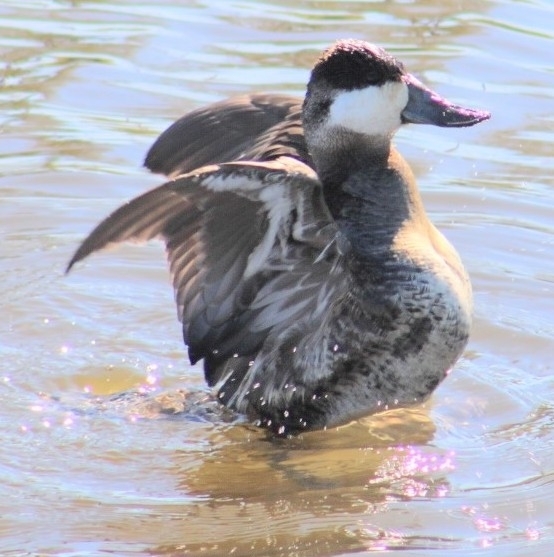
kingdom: Animalia
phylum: Chordata
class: Aves
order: Anseriformes
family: Anatidae
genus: Oxyura
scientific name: Oxyura jamaicensis
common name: Ruddy duck
